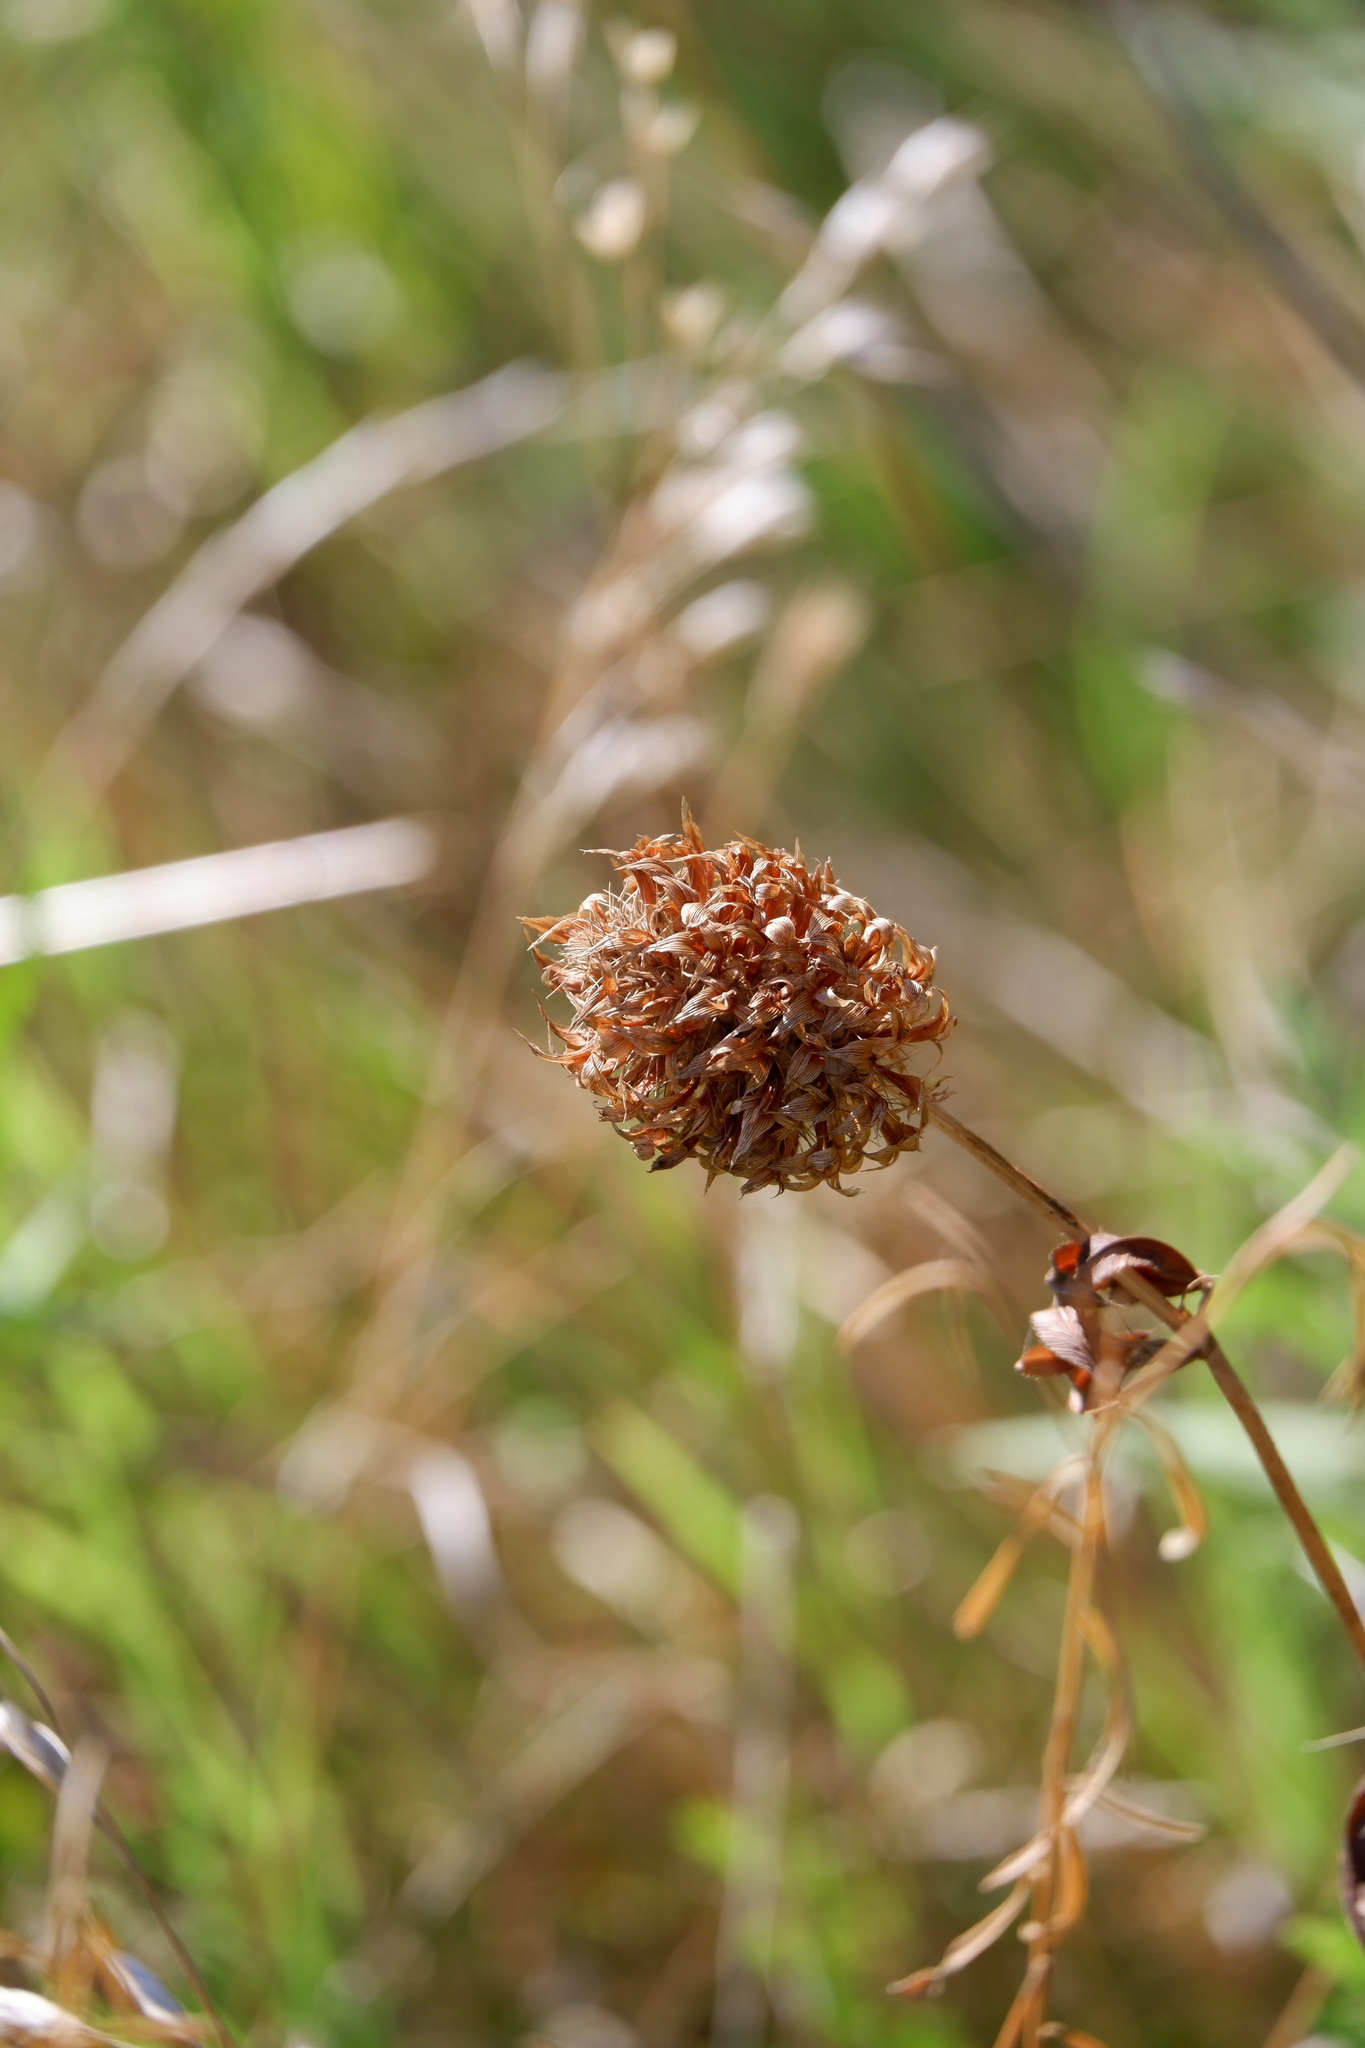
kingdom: Plantae
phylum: Tracheophyta
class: Magnoliopsida
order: Fabales
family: Fabaceae
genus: Trifolium
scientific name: Trifolium vesiculosum
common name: Arrowleaf clover
